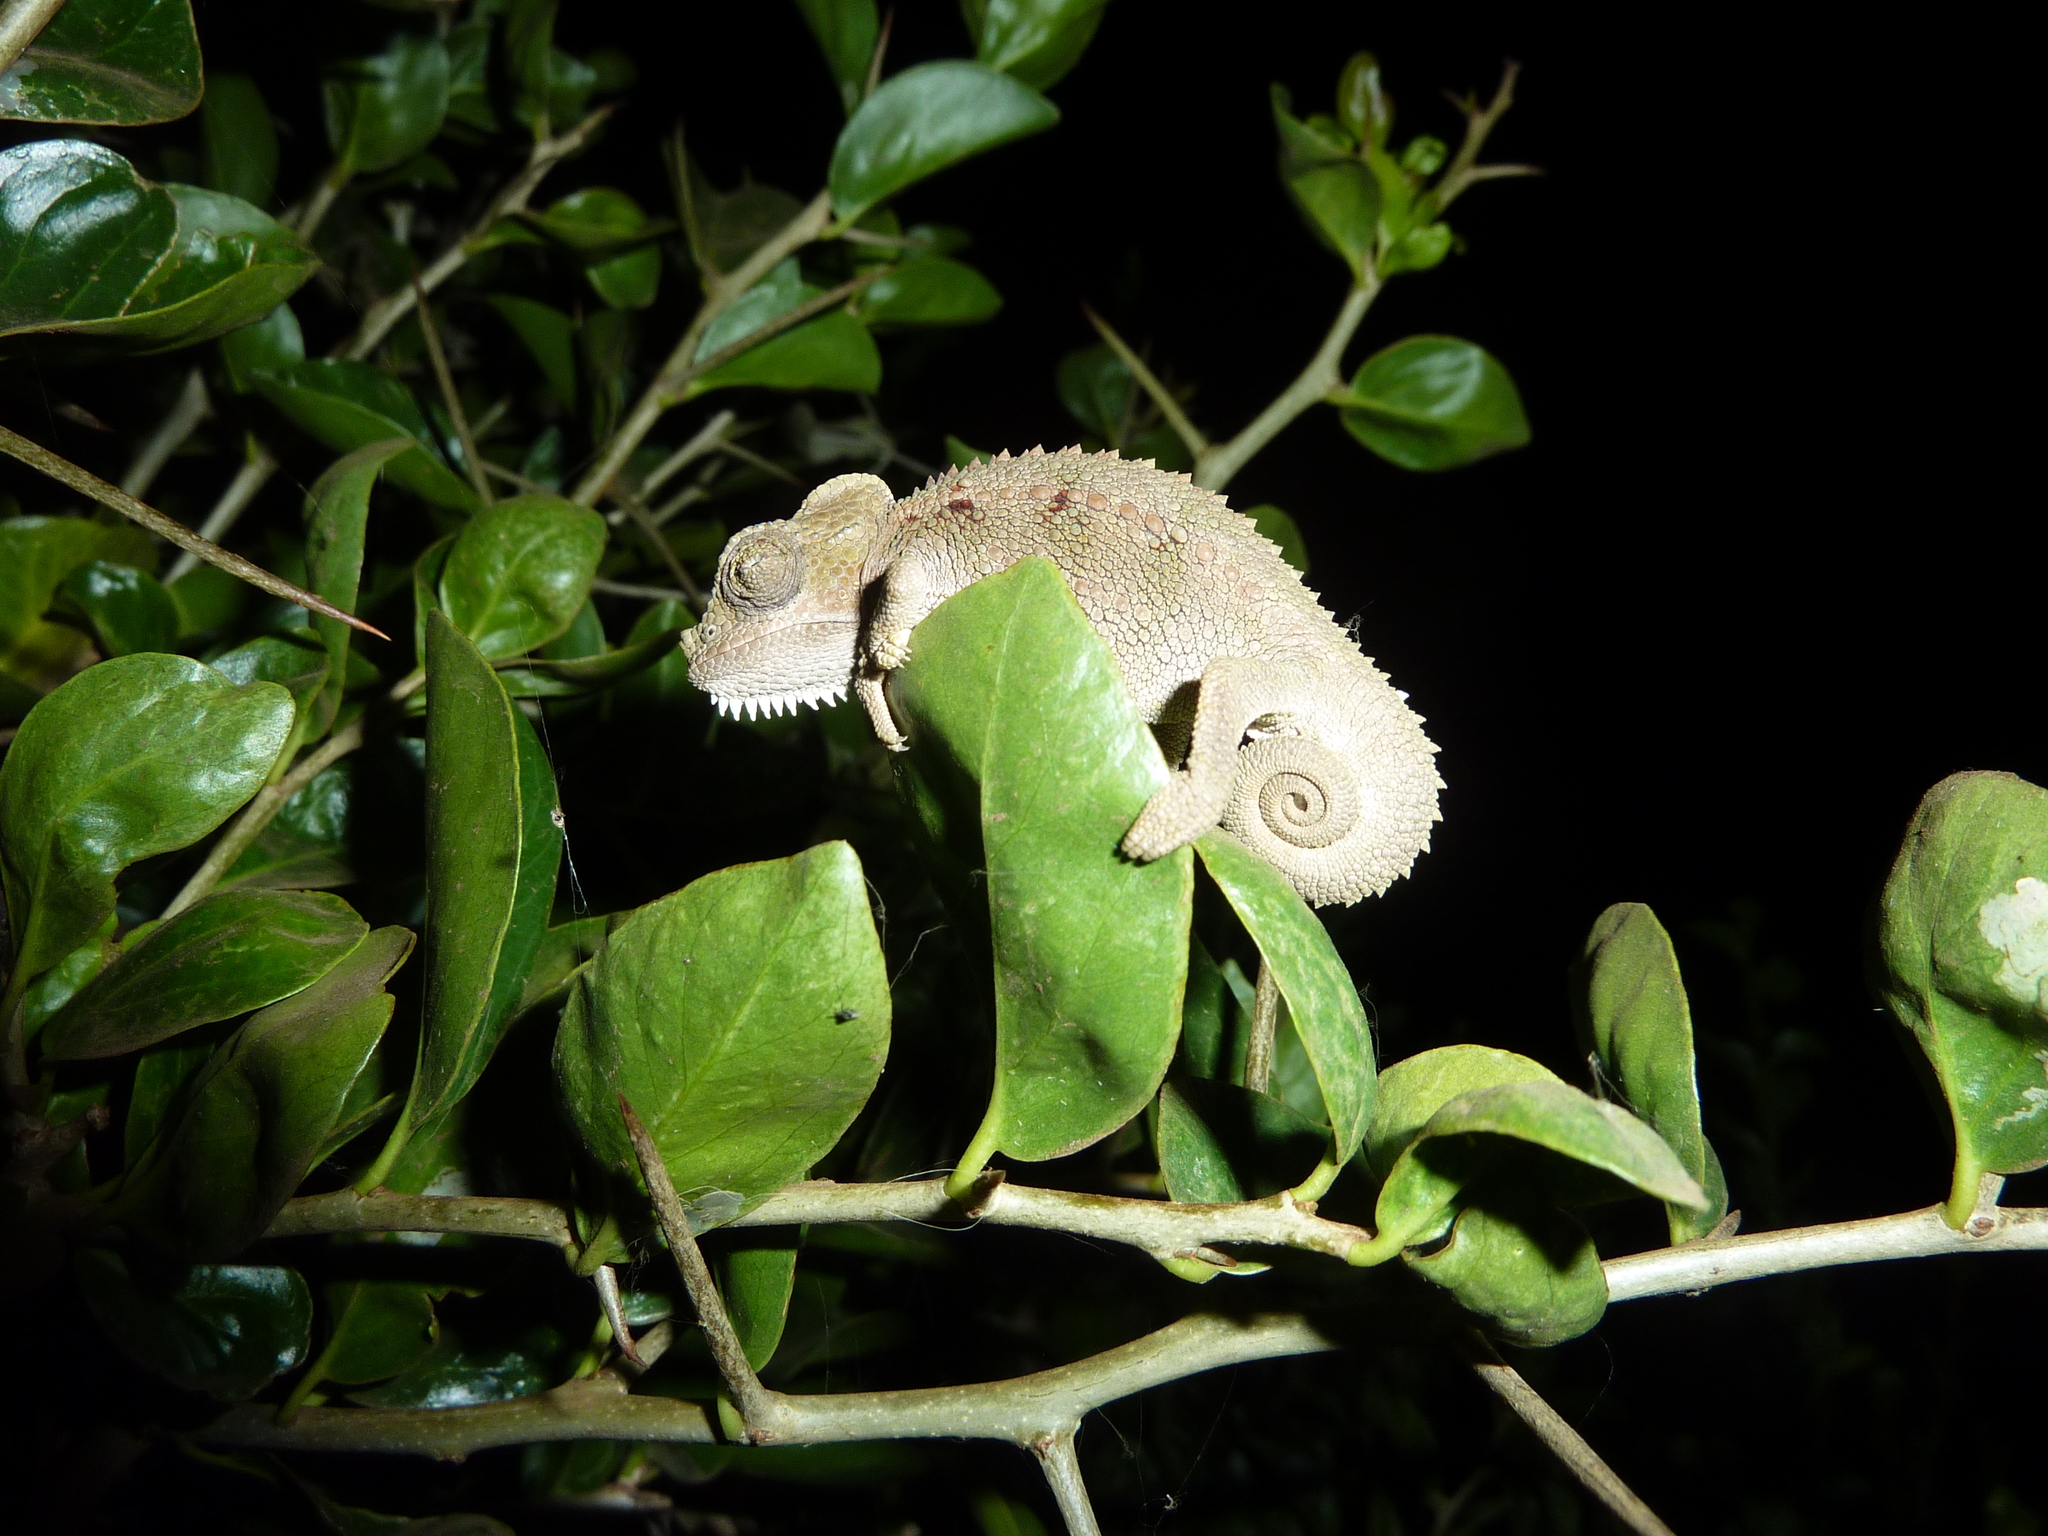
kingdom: Animalia
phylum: Chordata
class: Squamata
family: Chamaeleonidae
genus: Trioceros
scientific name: Trioceros hoehnelii
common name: High-casqued chameleon
